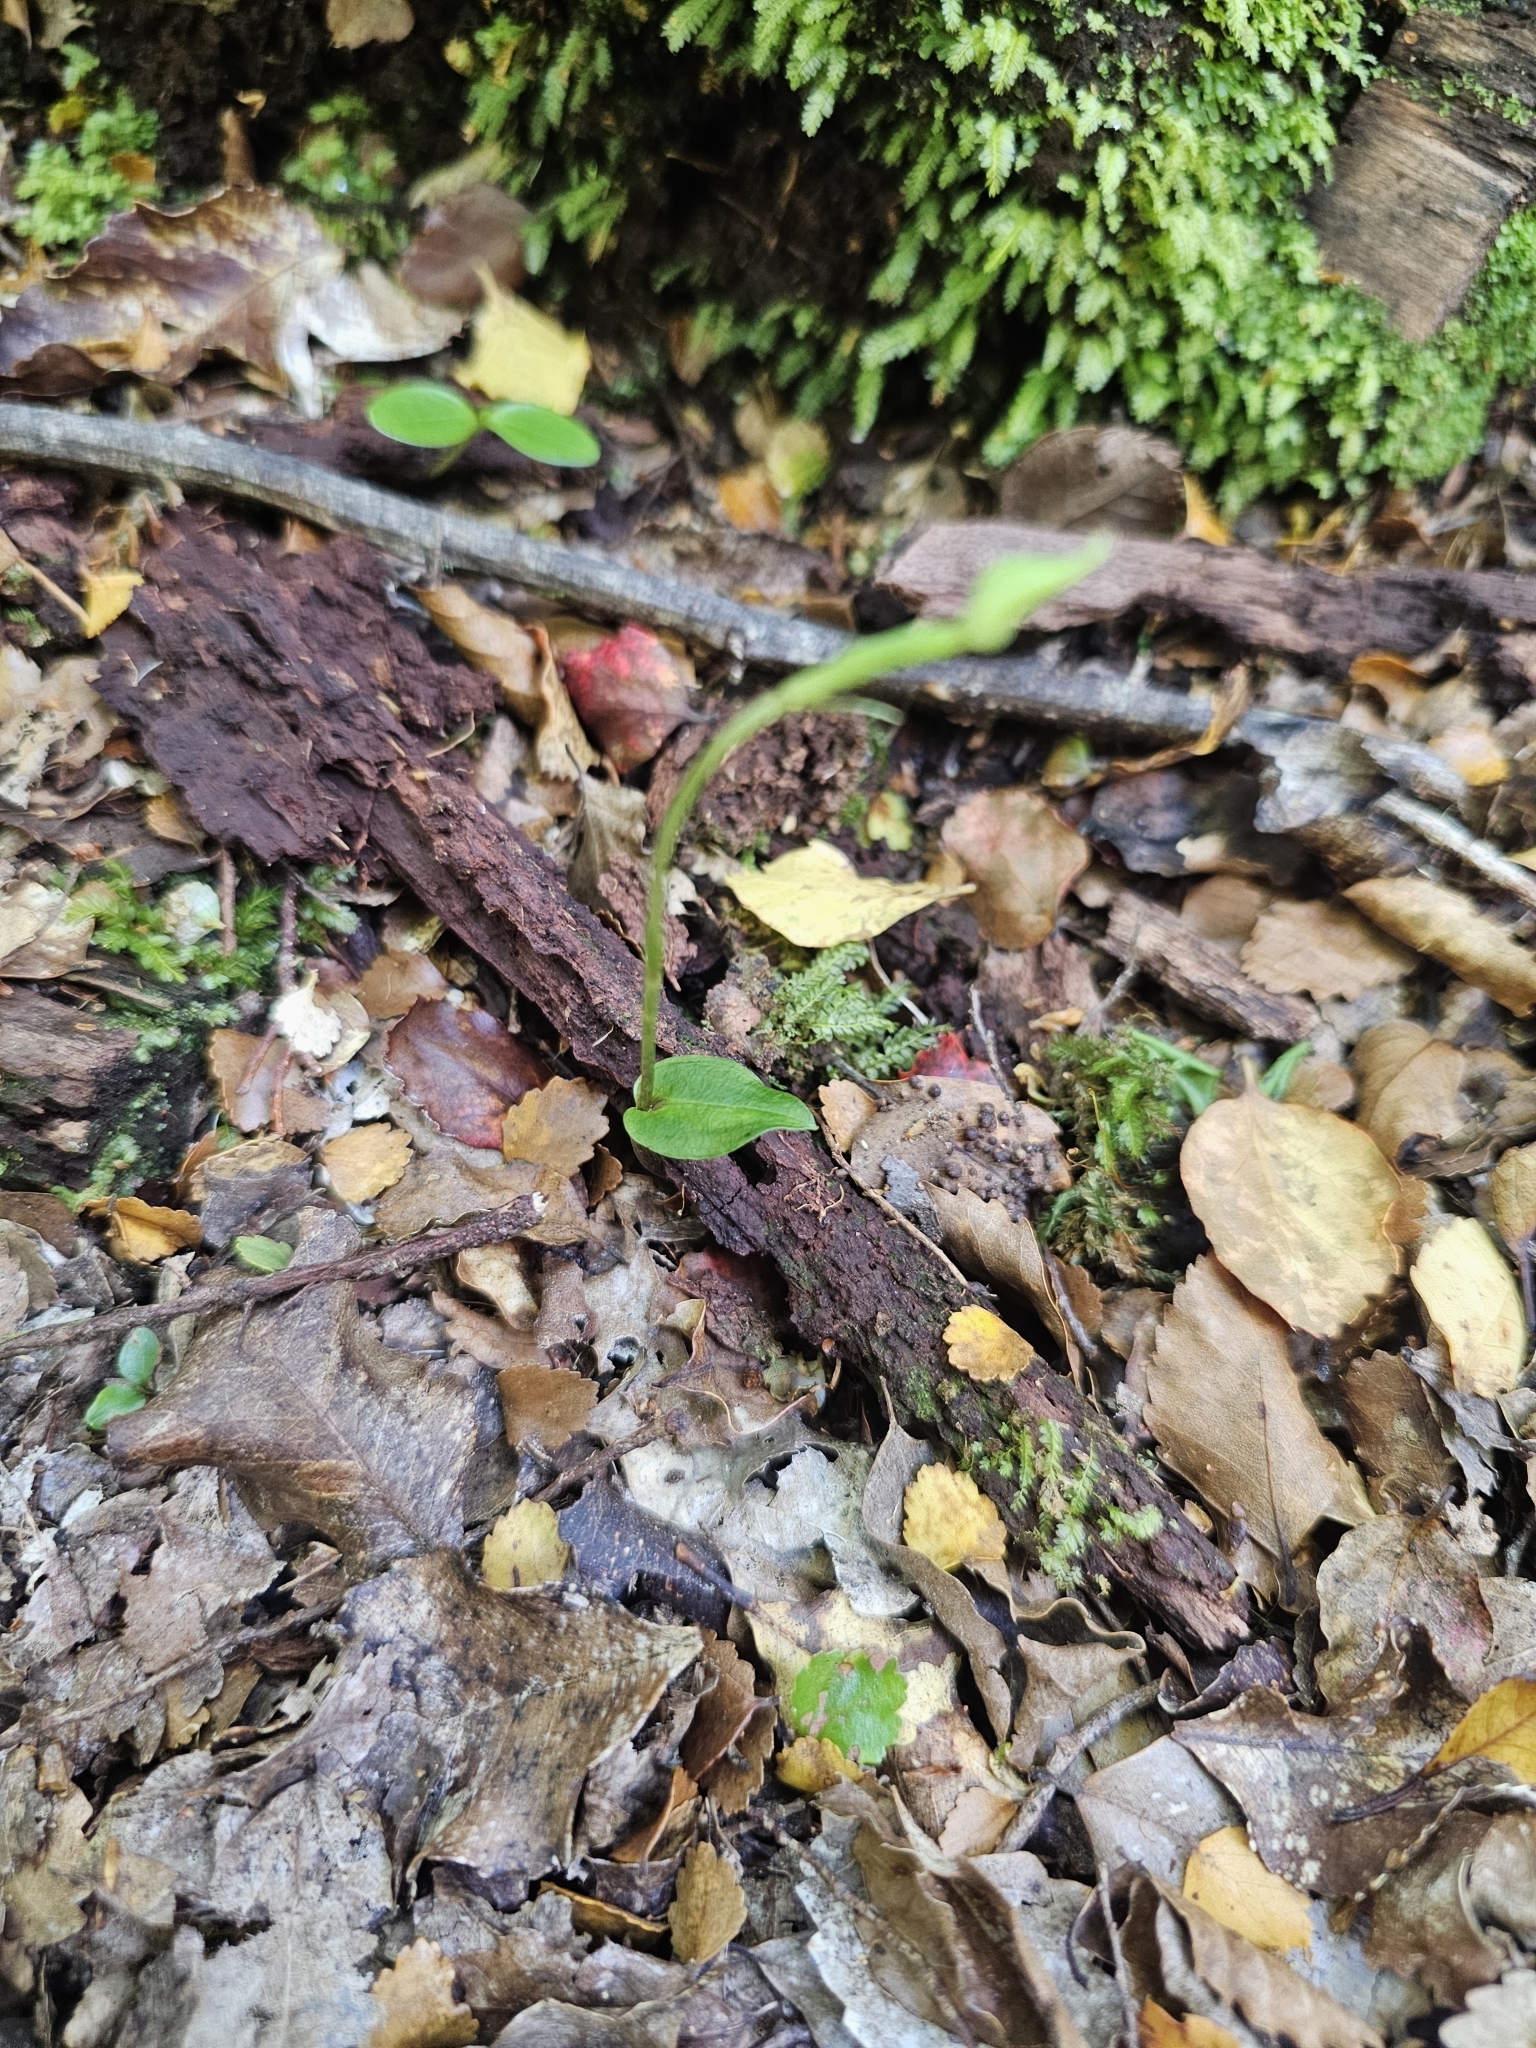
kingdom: Plantae
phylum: Tracheophyta
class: Liliopsida
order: Asparagales
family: Orchidaceae
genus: Adenochilus
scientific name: Adenochilus gracilis
